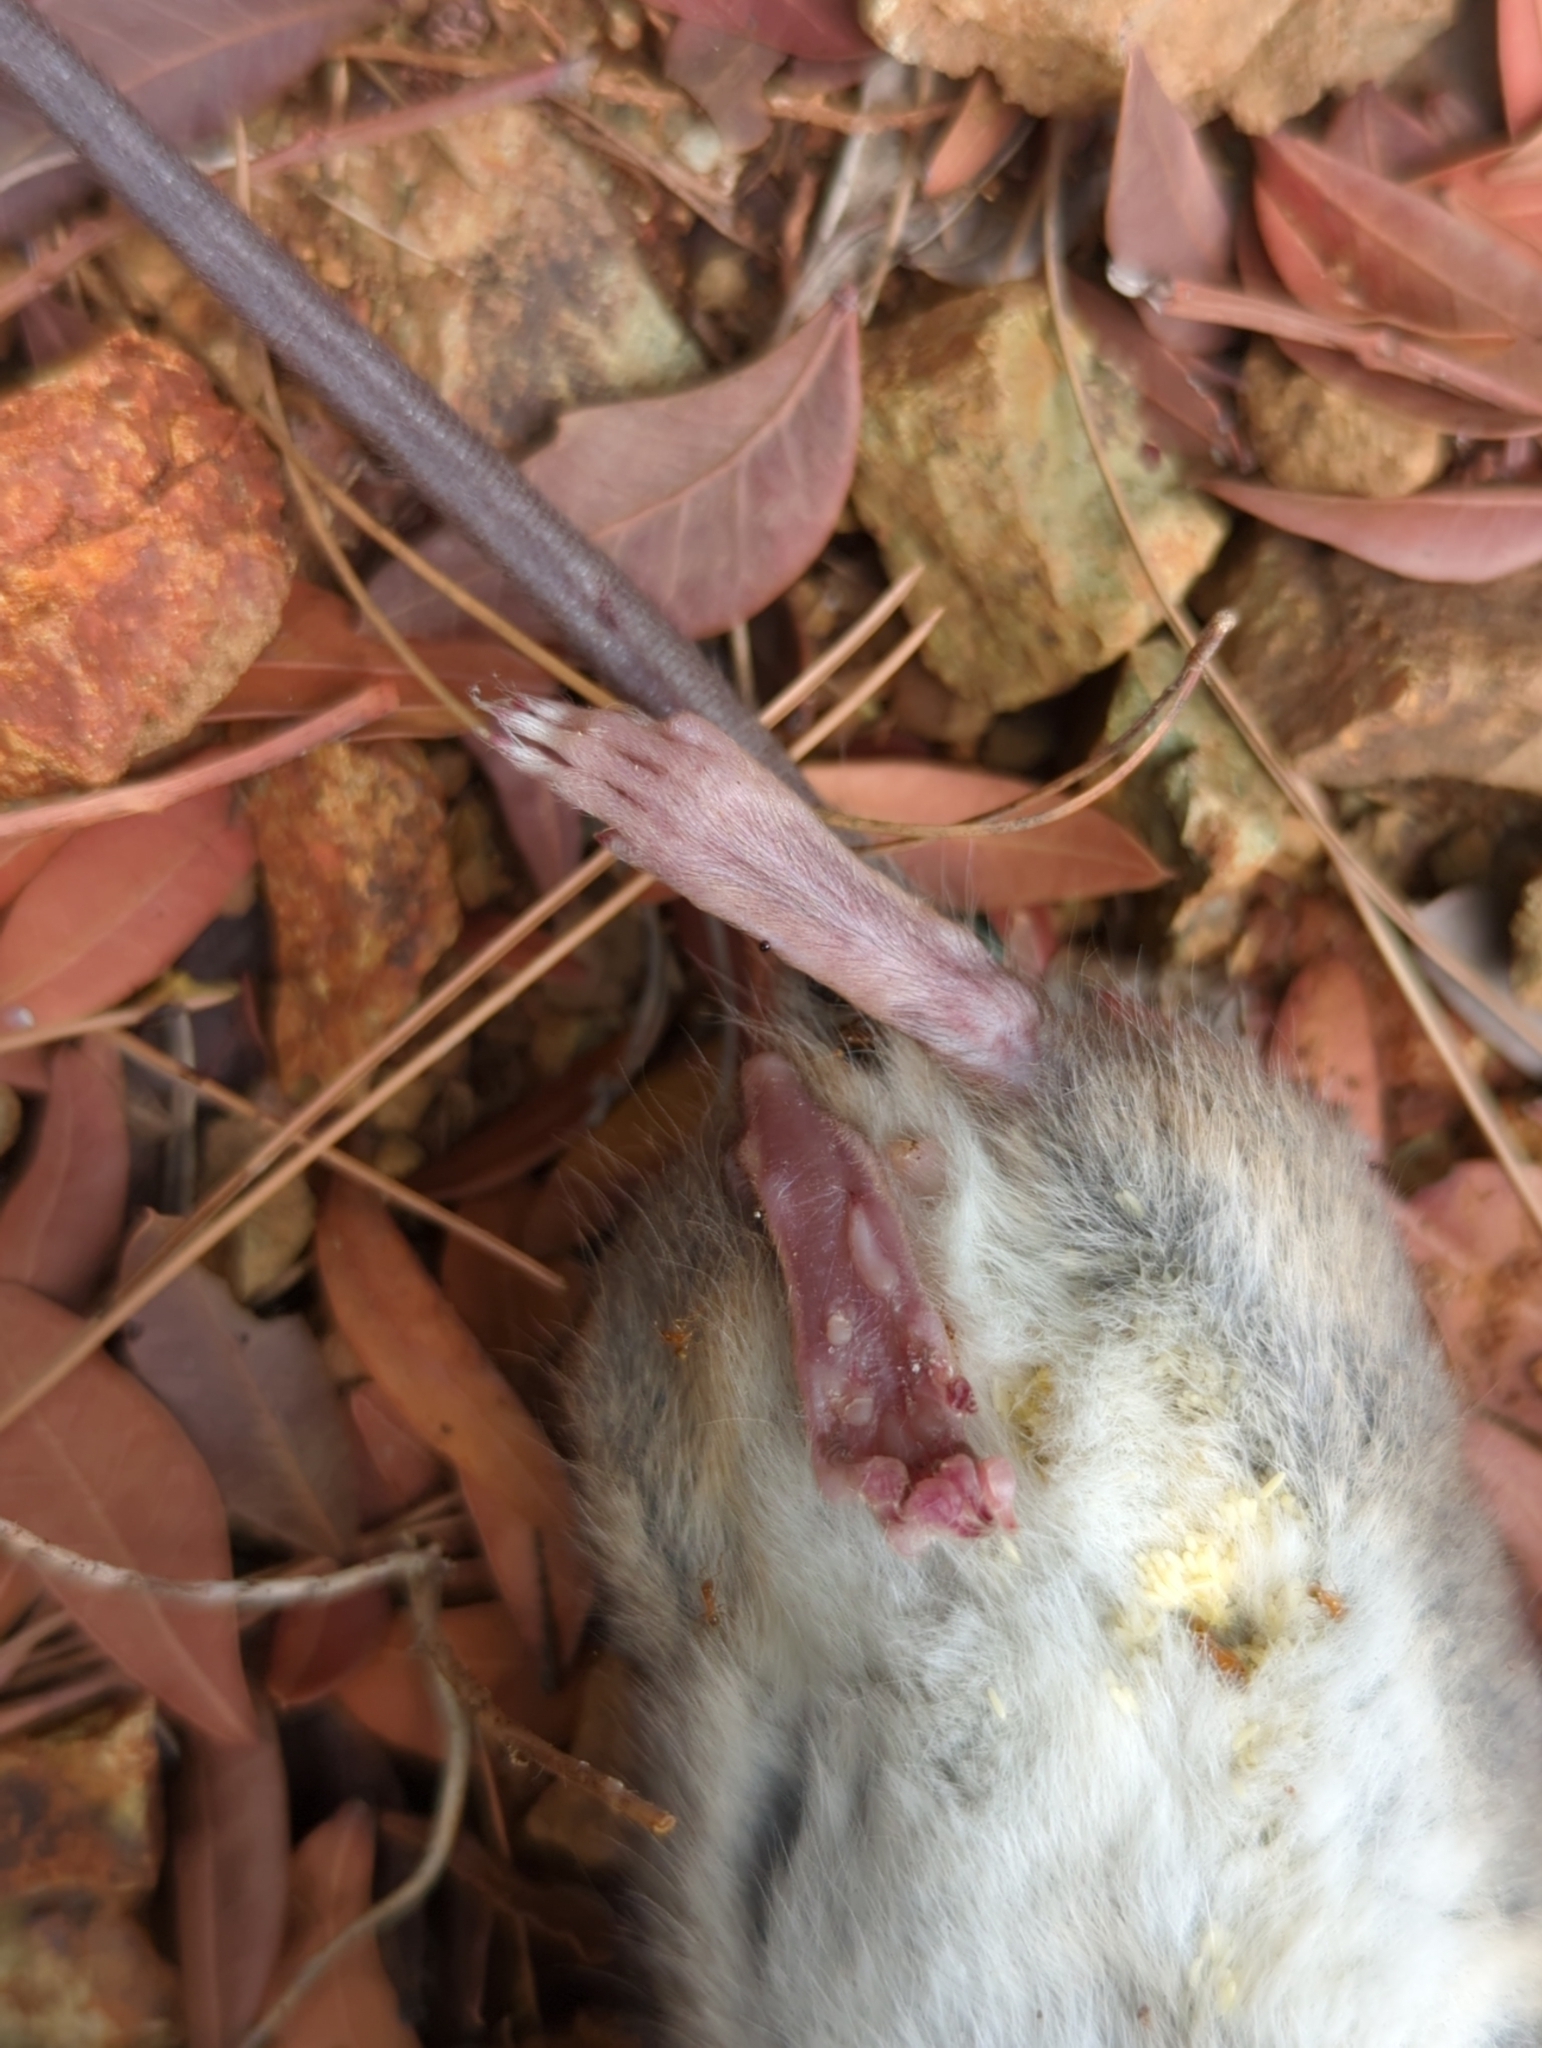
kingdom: Animalia
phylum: Chordata
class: Mammalia
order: Rodentia
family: Muridae
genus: Rattus
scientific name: Rattus rattus
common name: Black rat
